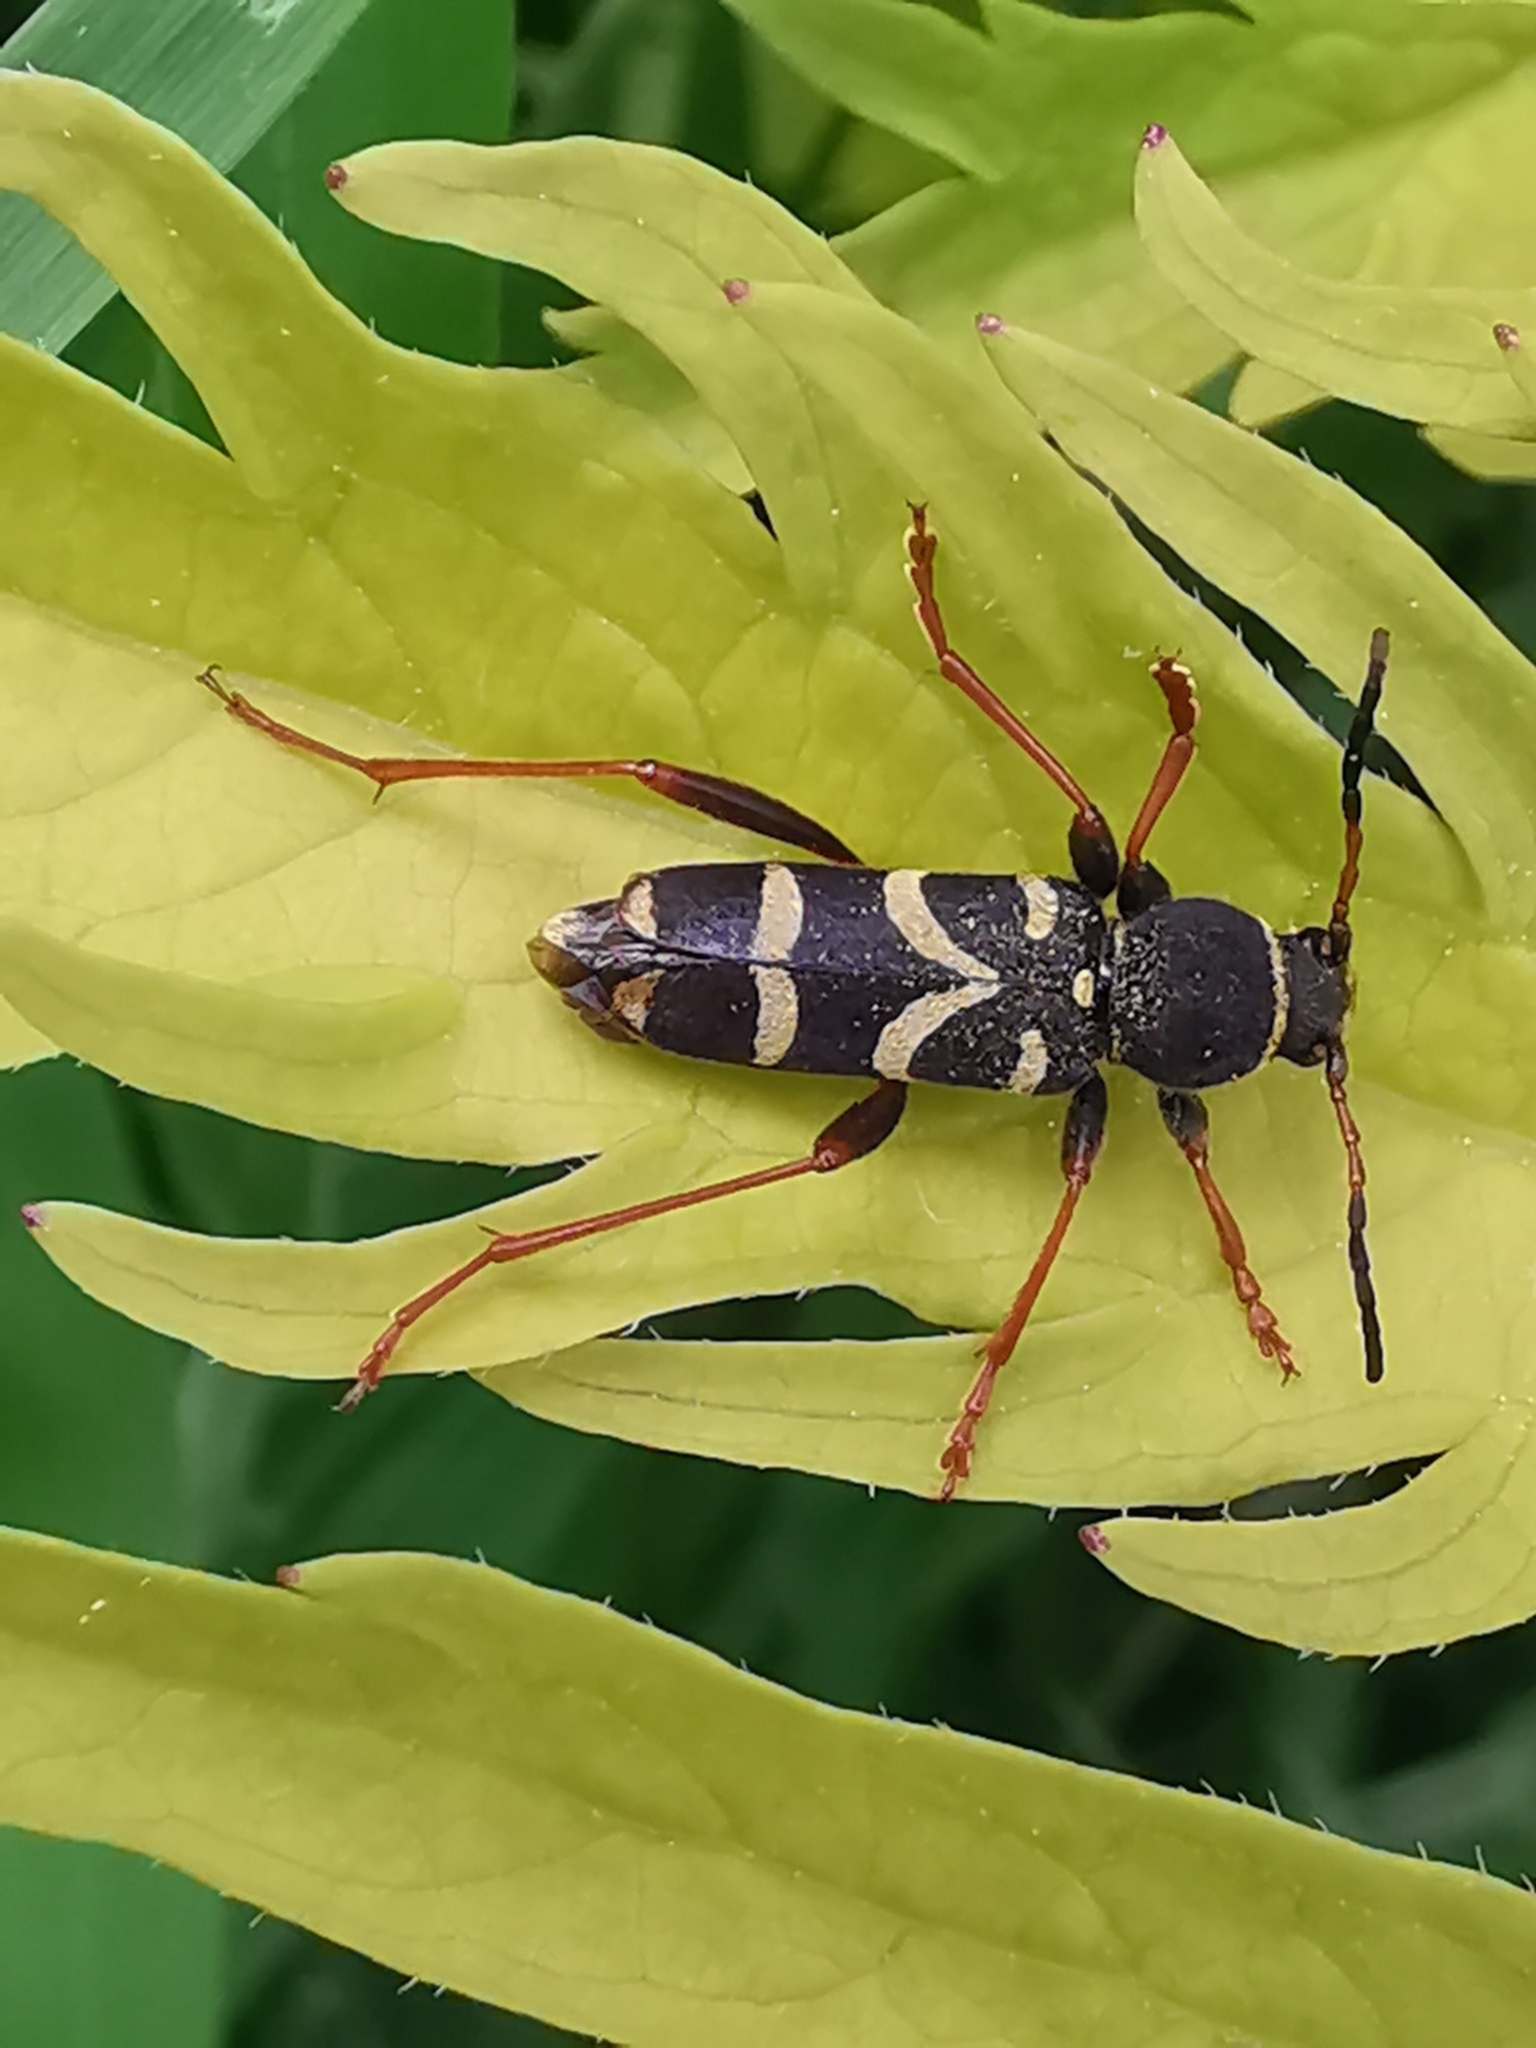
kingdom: Animalia
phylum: Arthropoda
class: Insecta
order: Coleoptera
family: Cerambycidae
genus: Clytus
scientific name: Clytus arietis
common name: Wasp beetle
